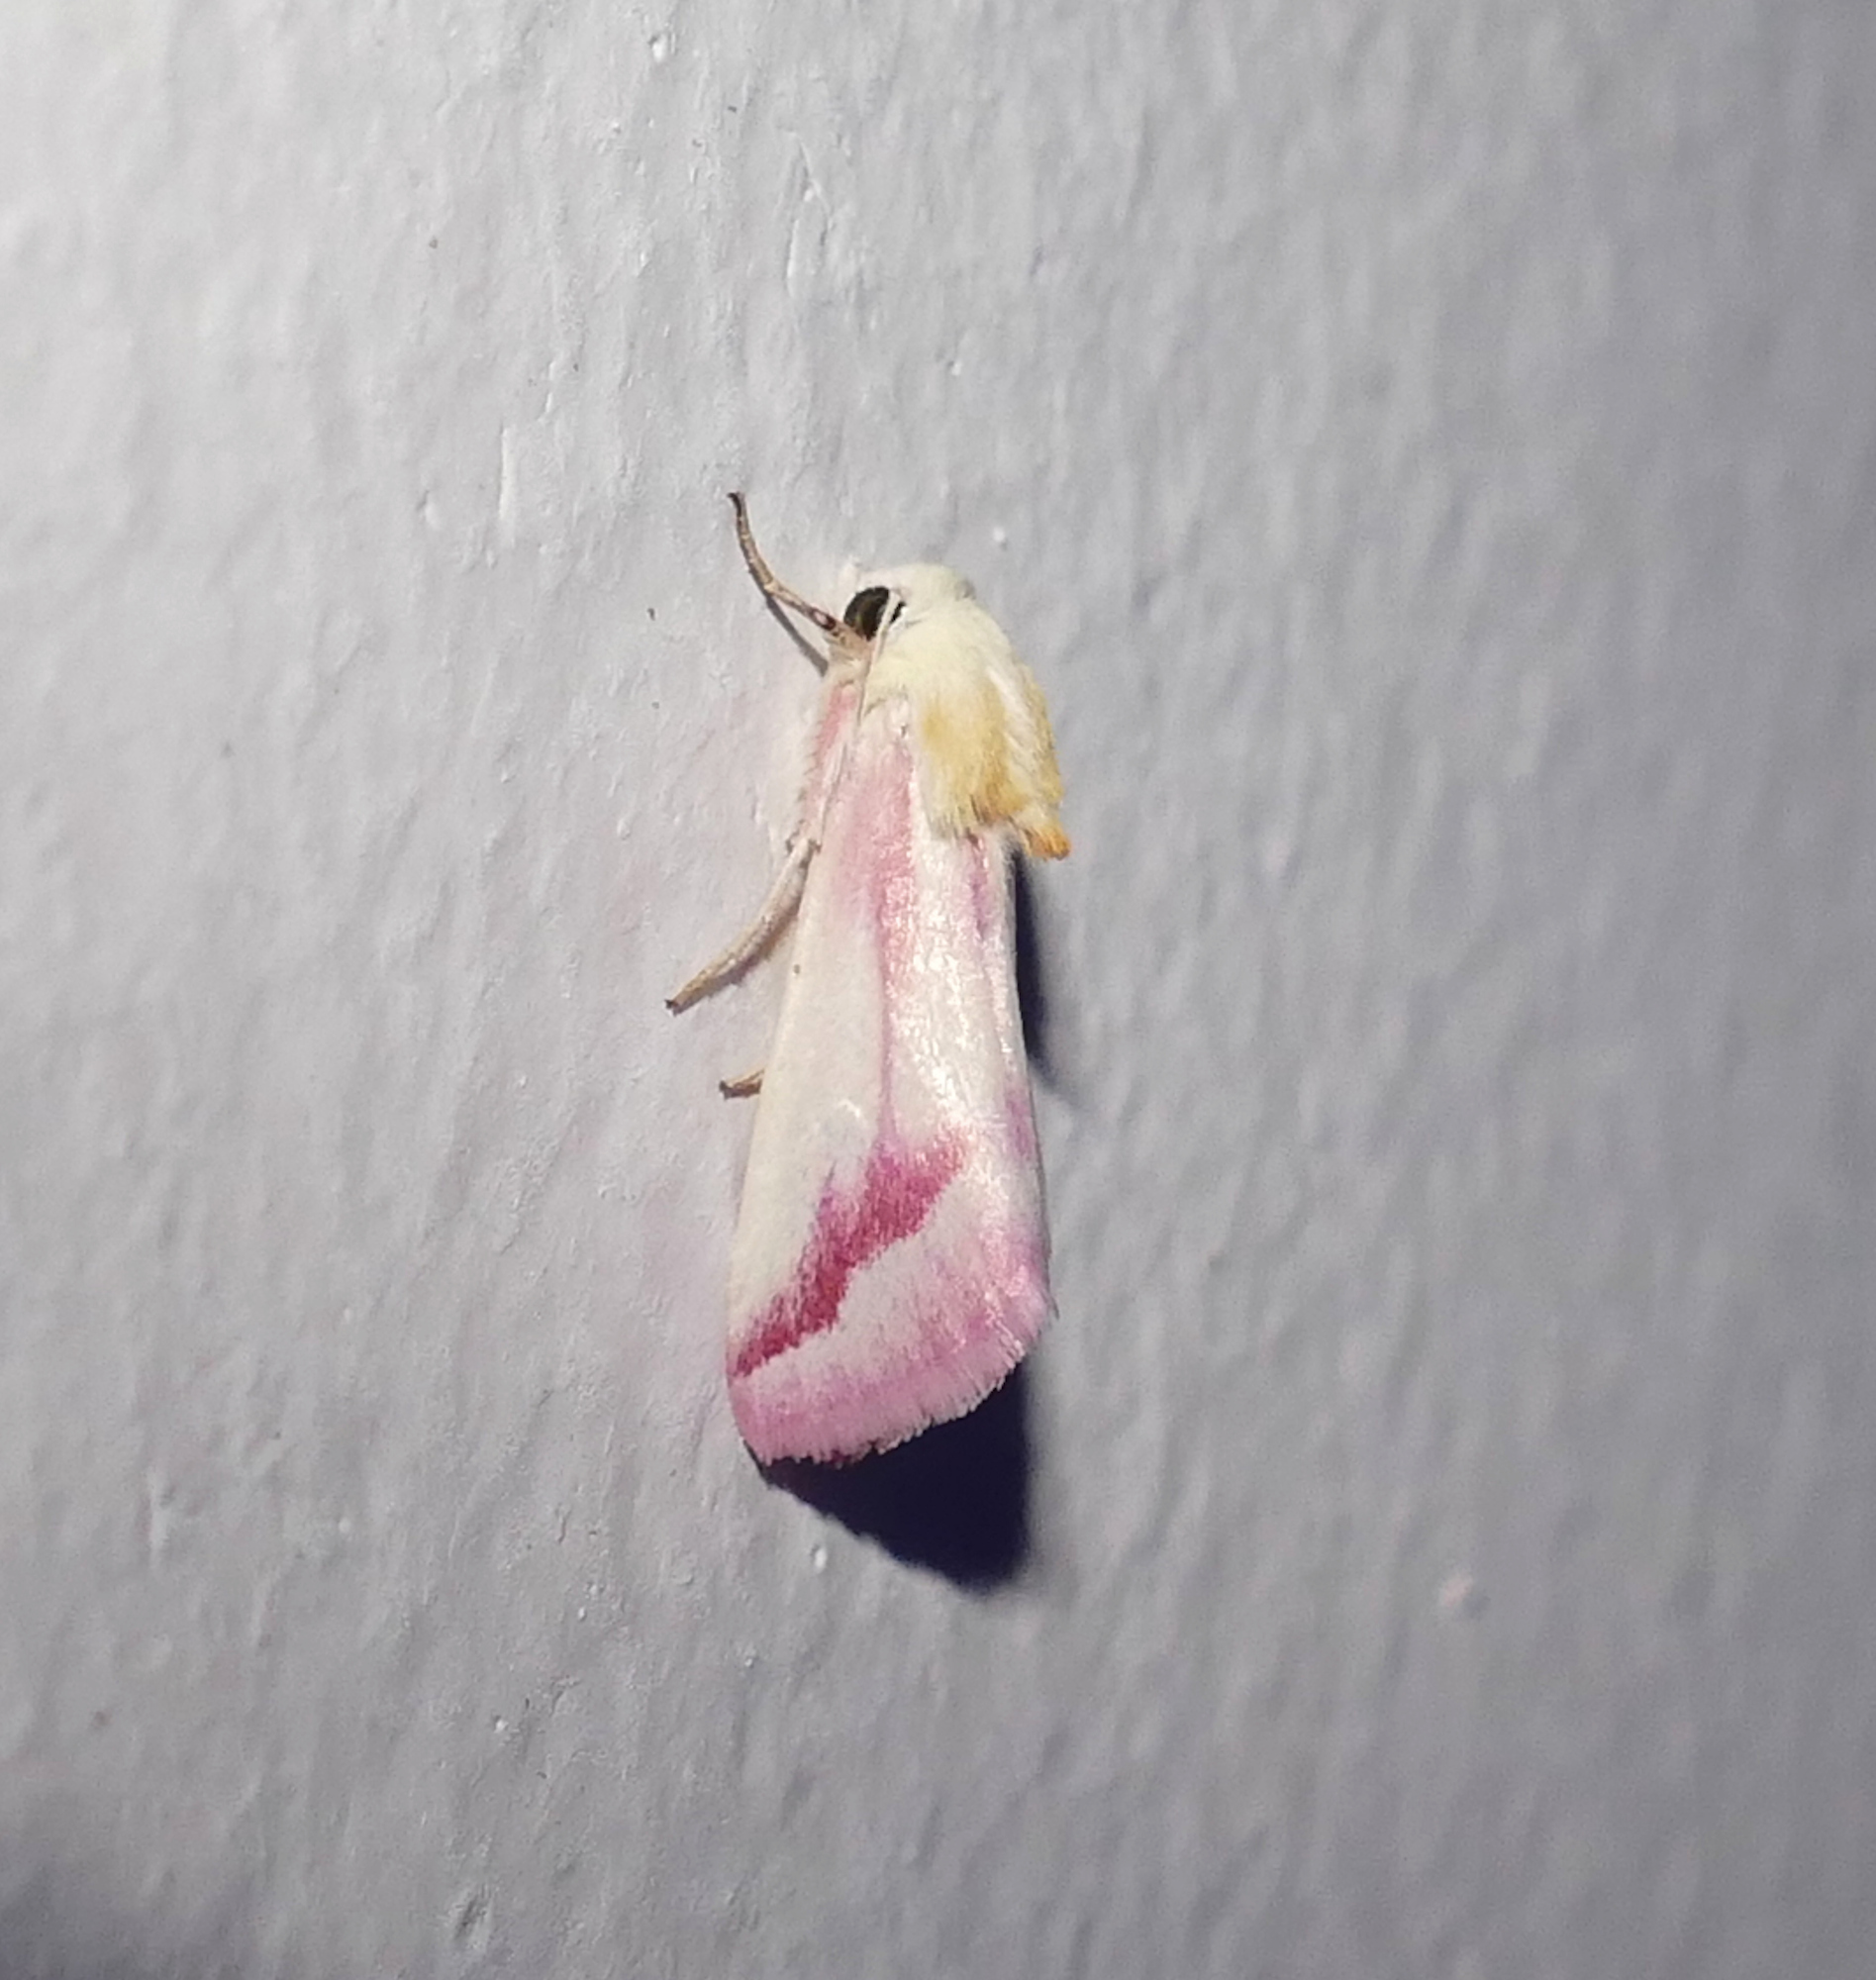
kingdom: Animalia
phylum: Arthropoda
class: Insecta
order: Lepidoptera
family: Noctuidae
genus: Schinia
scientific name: Schinia gaurae
